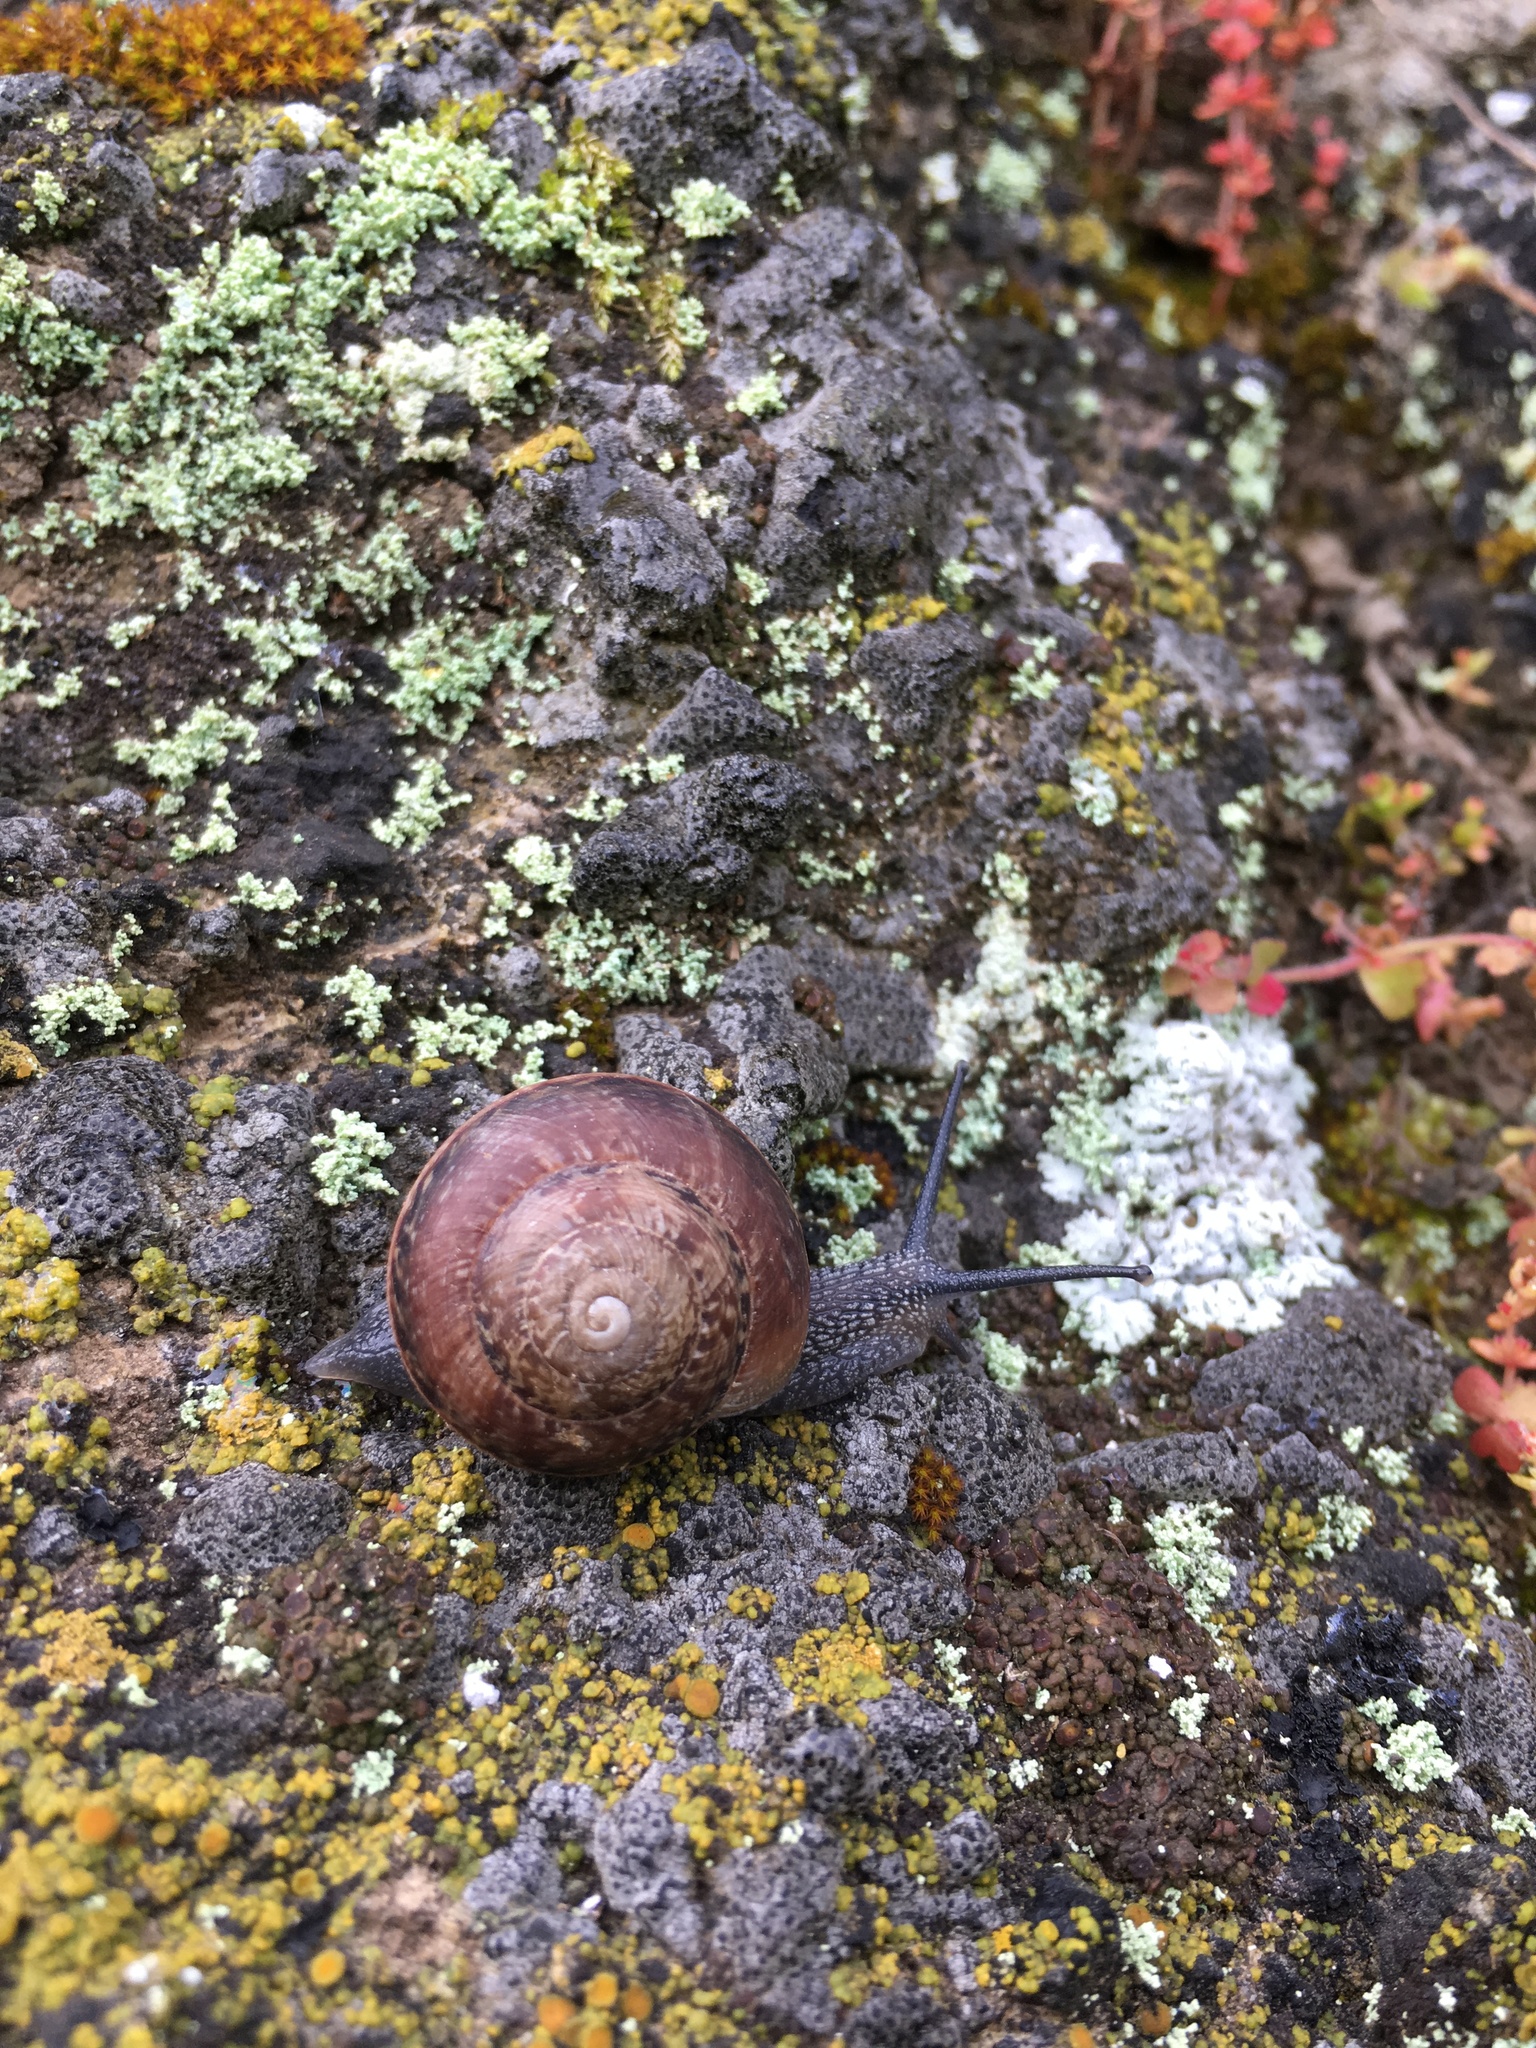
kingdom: Animalia
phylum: Mollusca
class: Gastropoda
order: Stylommatophora
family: Xanthonychidae
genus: Xerarionta
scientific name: Xerarionta tryoni
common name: Bicolor cactus snail
